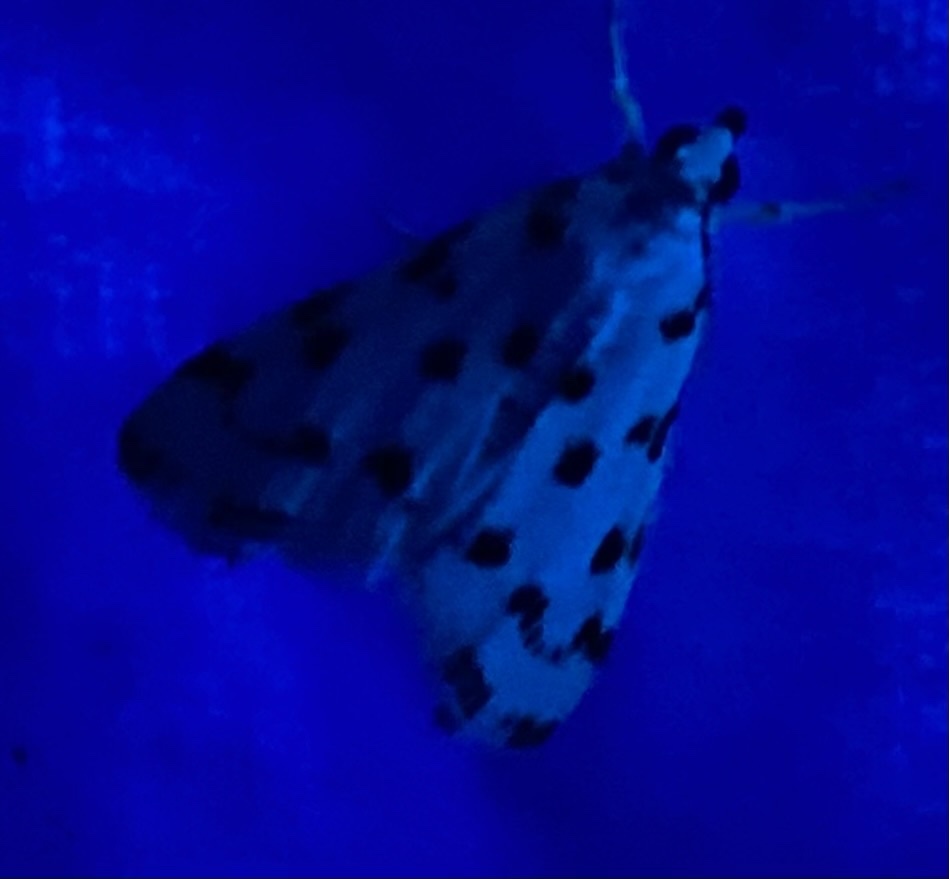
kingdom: Animalia
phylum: Arthropoda
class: Insecta
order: Lepidoptera
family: Crambidae
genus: Eustixia
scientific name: Eustixia pupula
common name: American cabbage pearl
